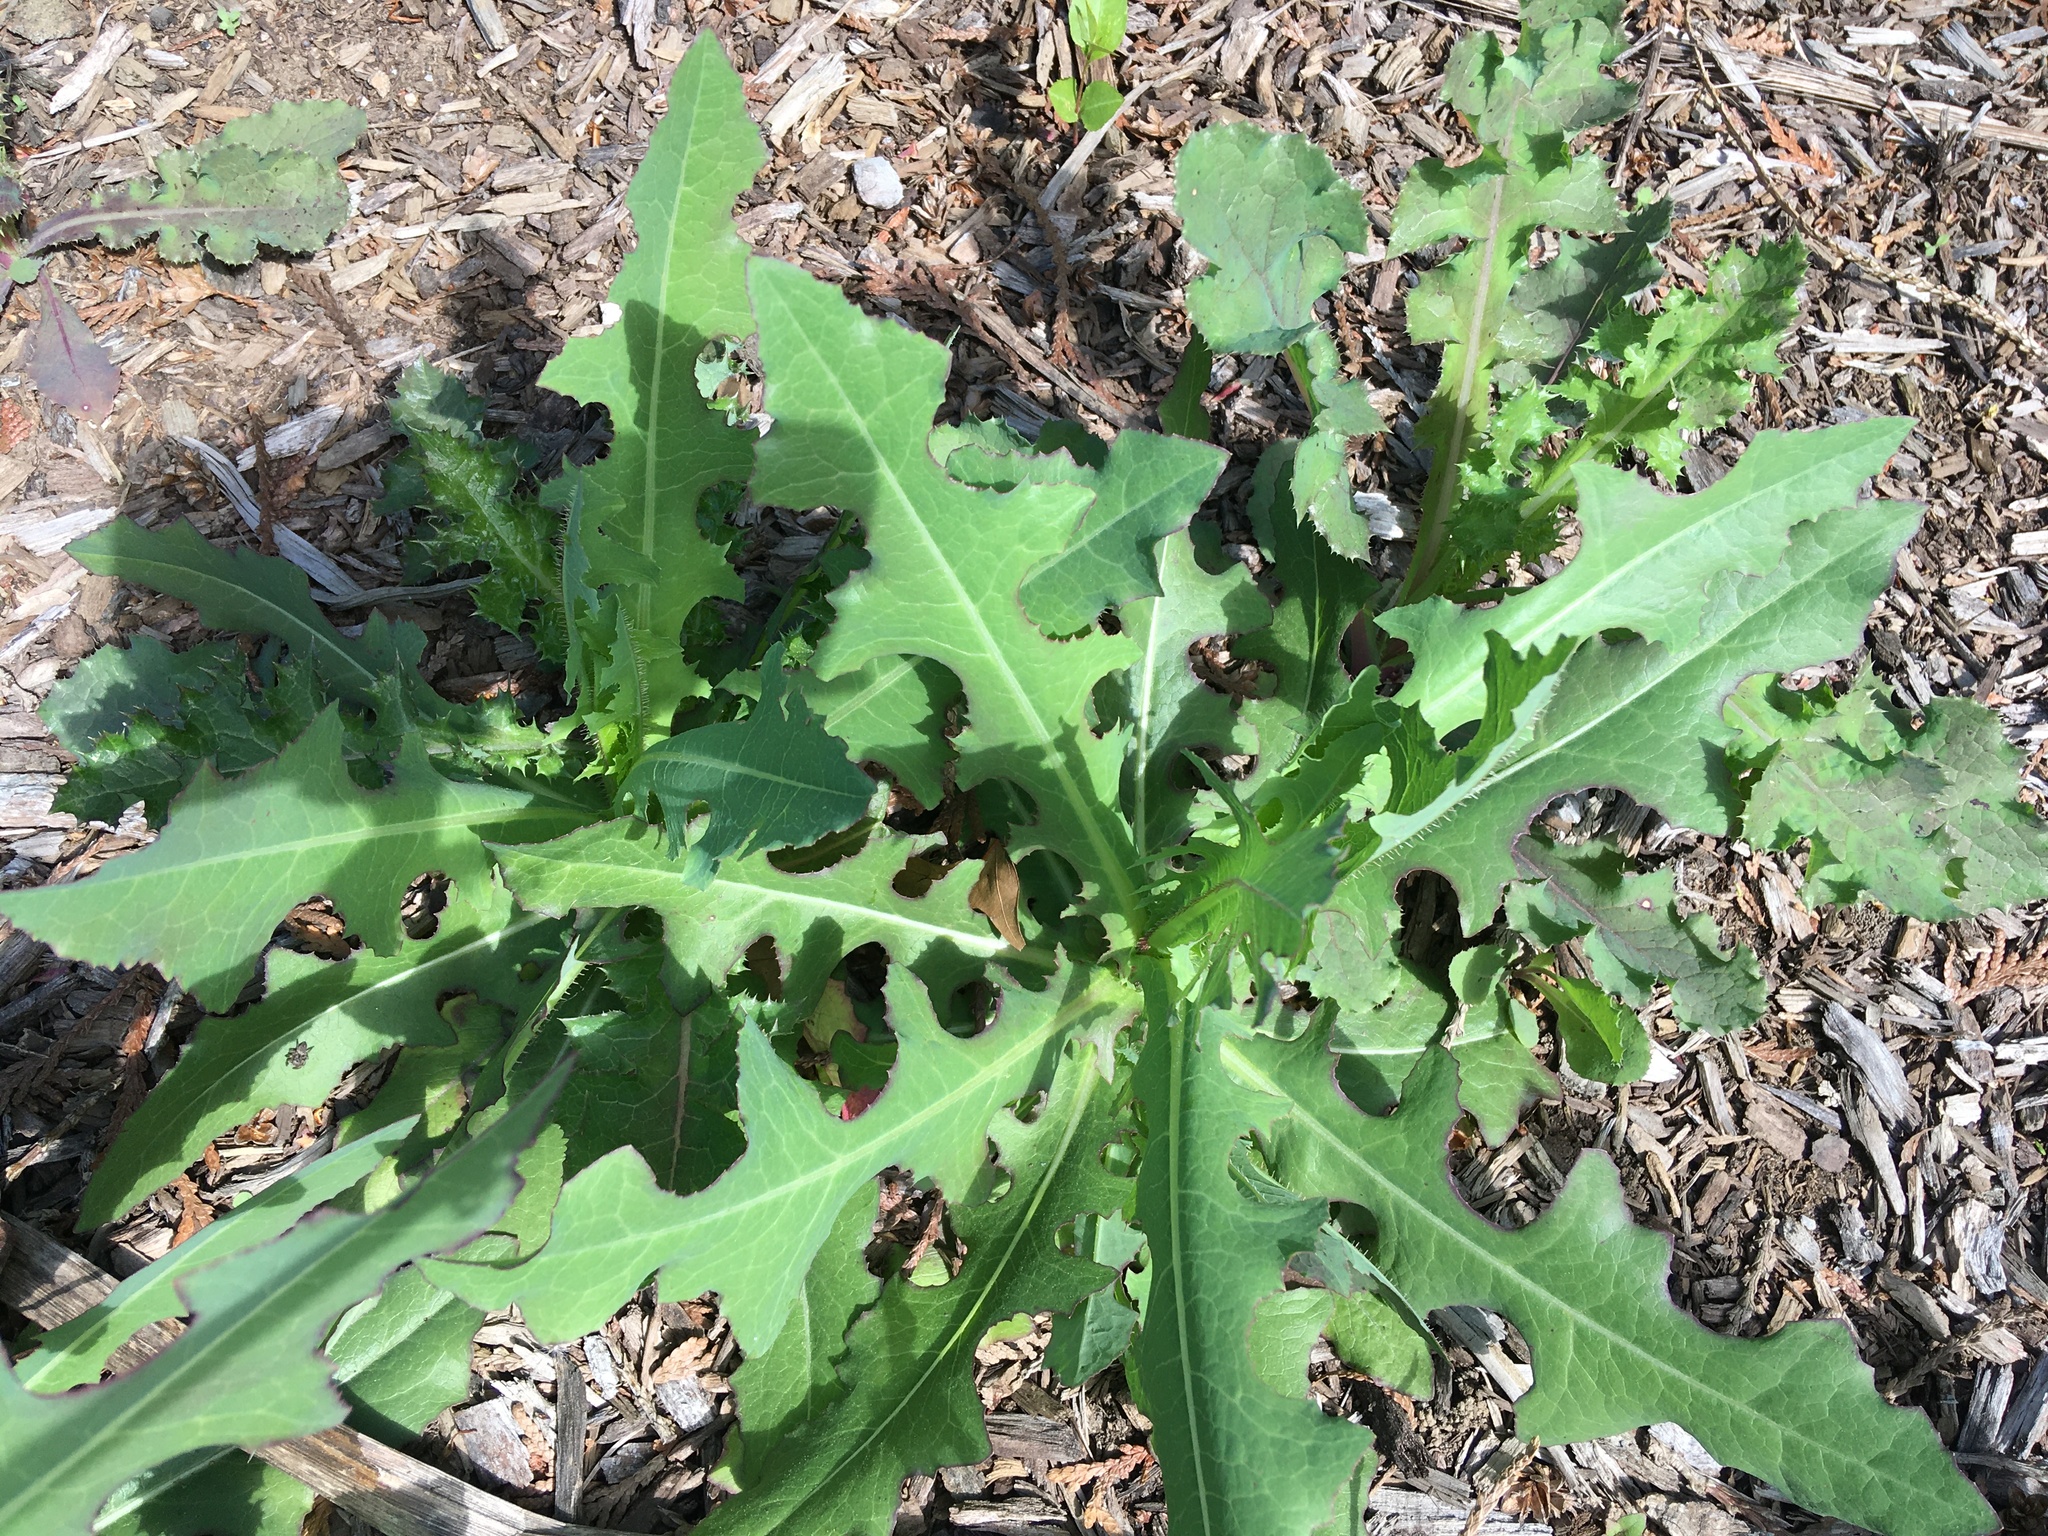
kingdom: Plantae
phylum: Tracheophyta
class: Magnoliopsida
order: Asterales
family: Asteraceae
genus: Lactuca
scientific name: Lactuca serriola
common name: Prickly lettuce
